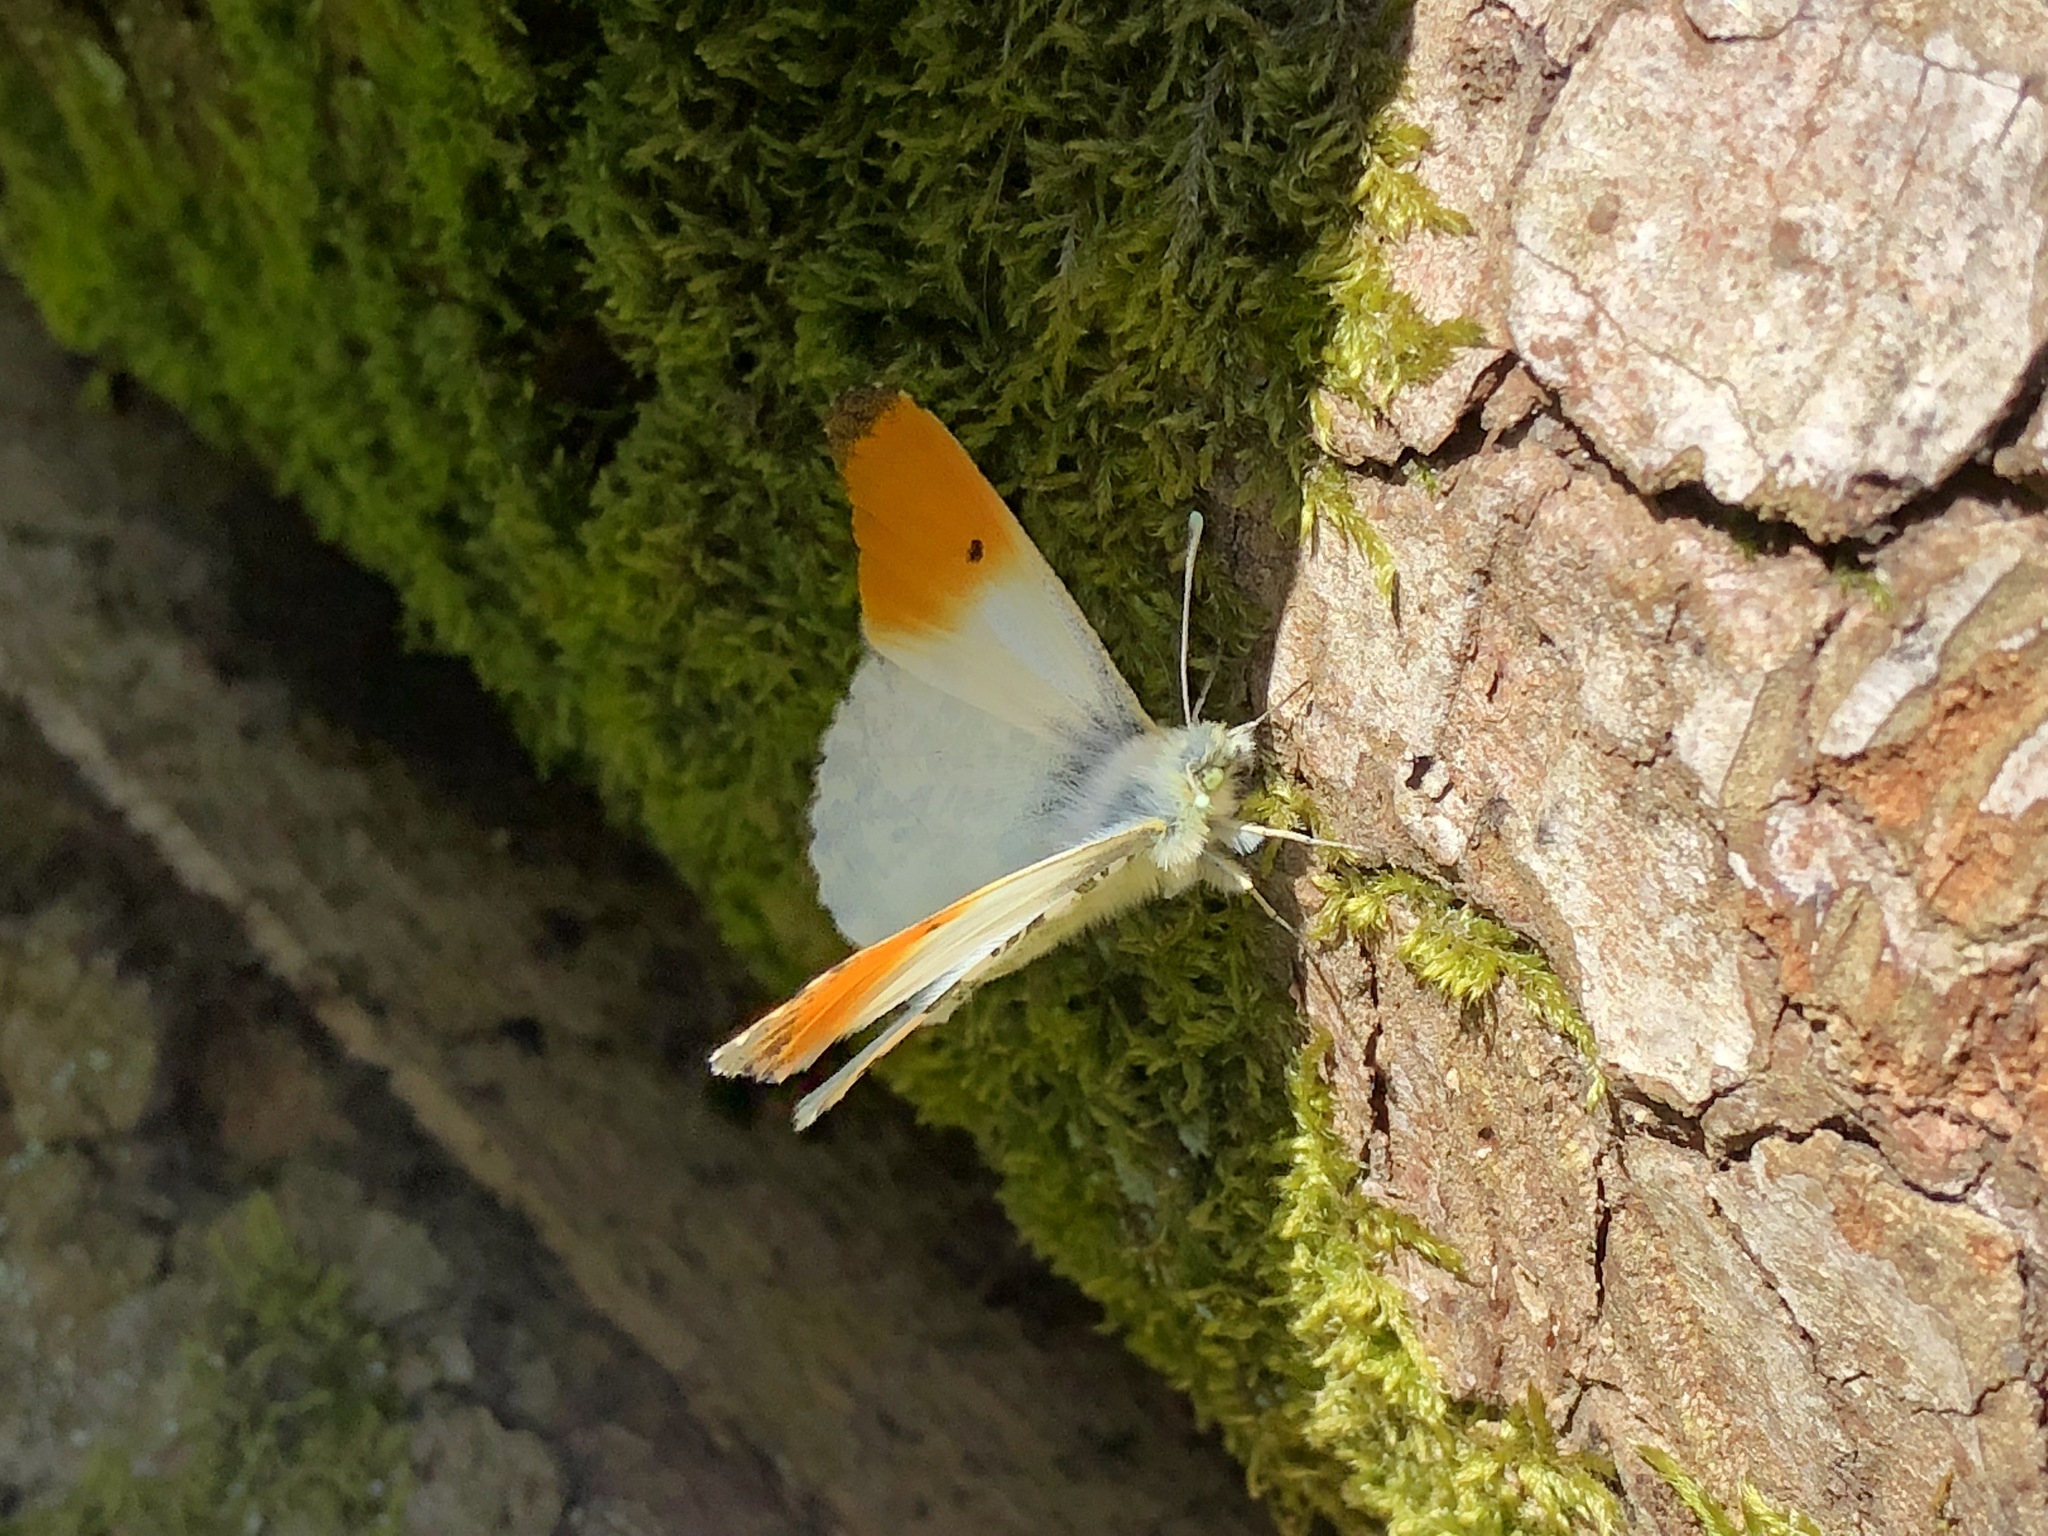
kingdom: Animalia
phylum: Arthropoda
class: Insecta
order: Lepidoptera
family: Pieridae
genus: Anthocharis
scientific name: Anthocharis cardamines
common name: Orange-tip
